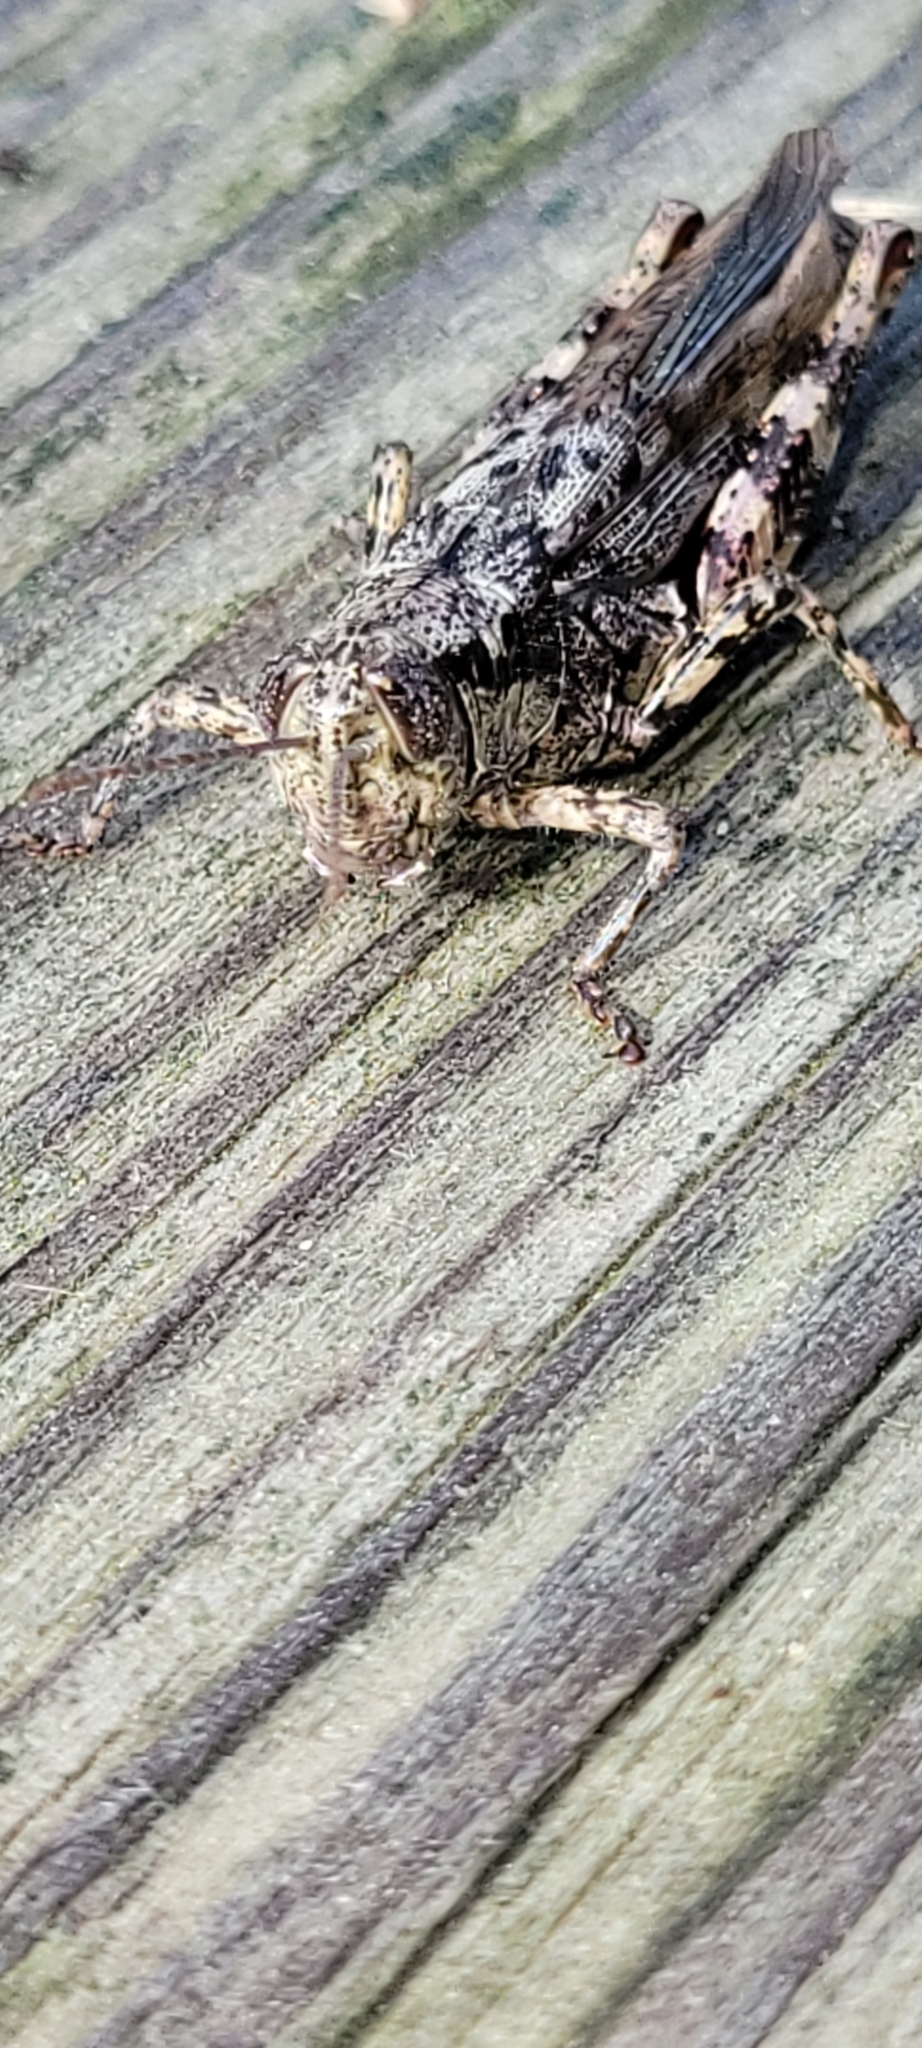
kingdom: Animalia
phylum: Arthropoda
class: Insecta
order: Orthoptera
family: Acrididae
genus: Melanoplus
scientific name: Melanoplus punctulatus
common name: Pine-tree spur-throat grasshopper
